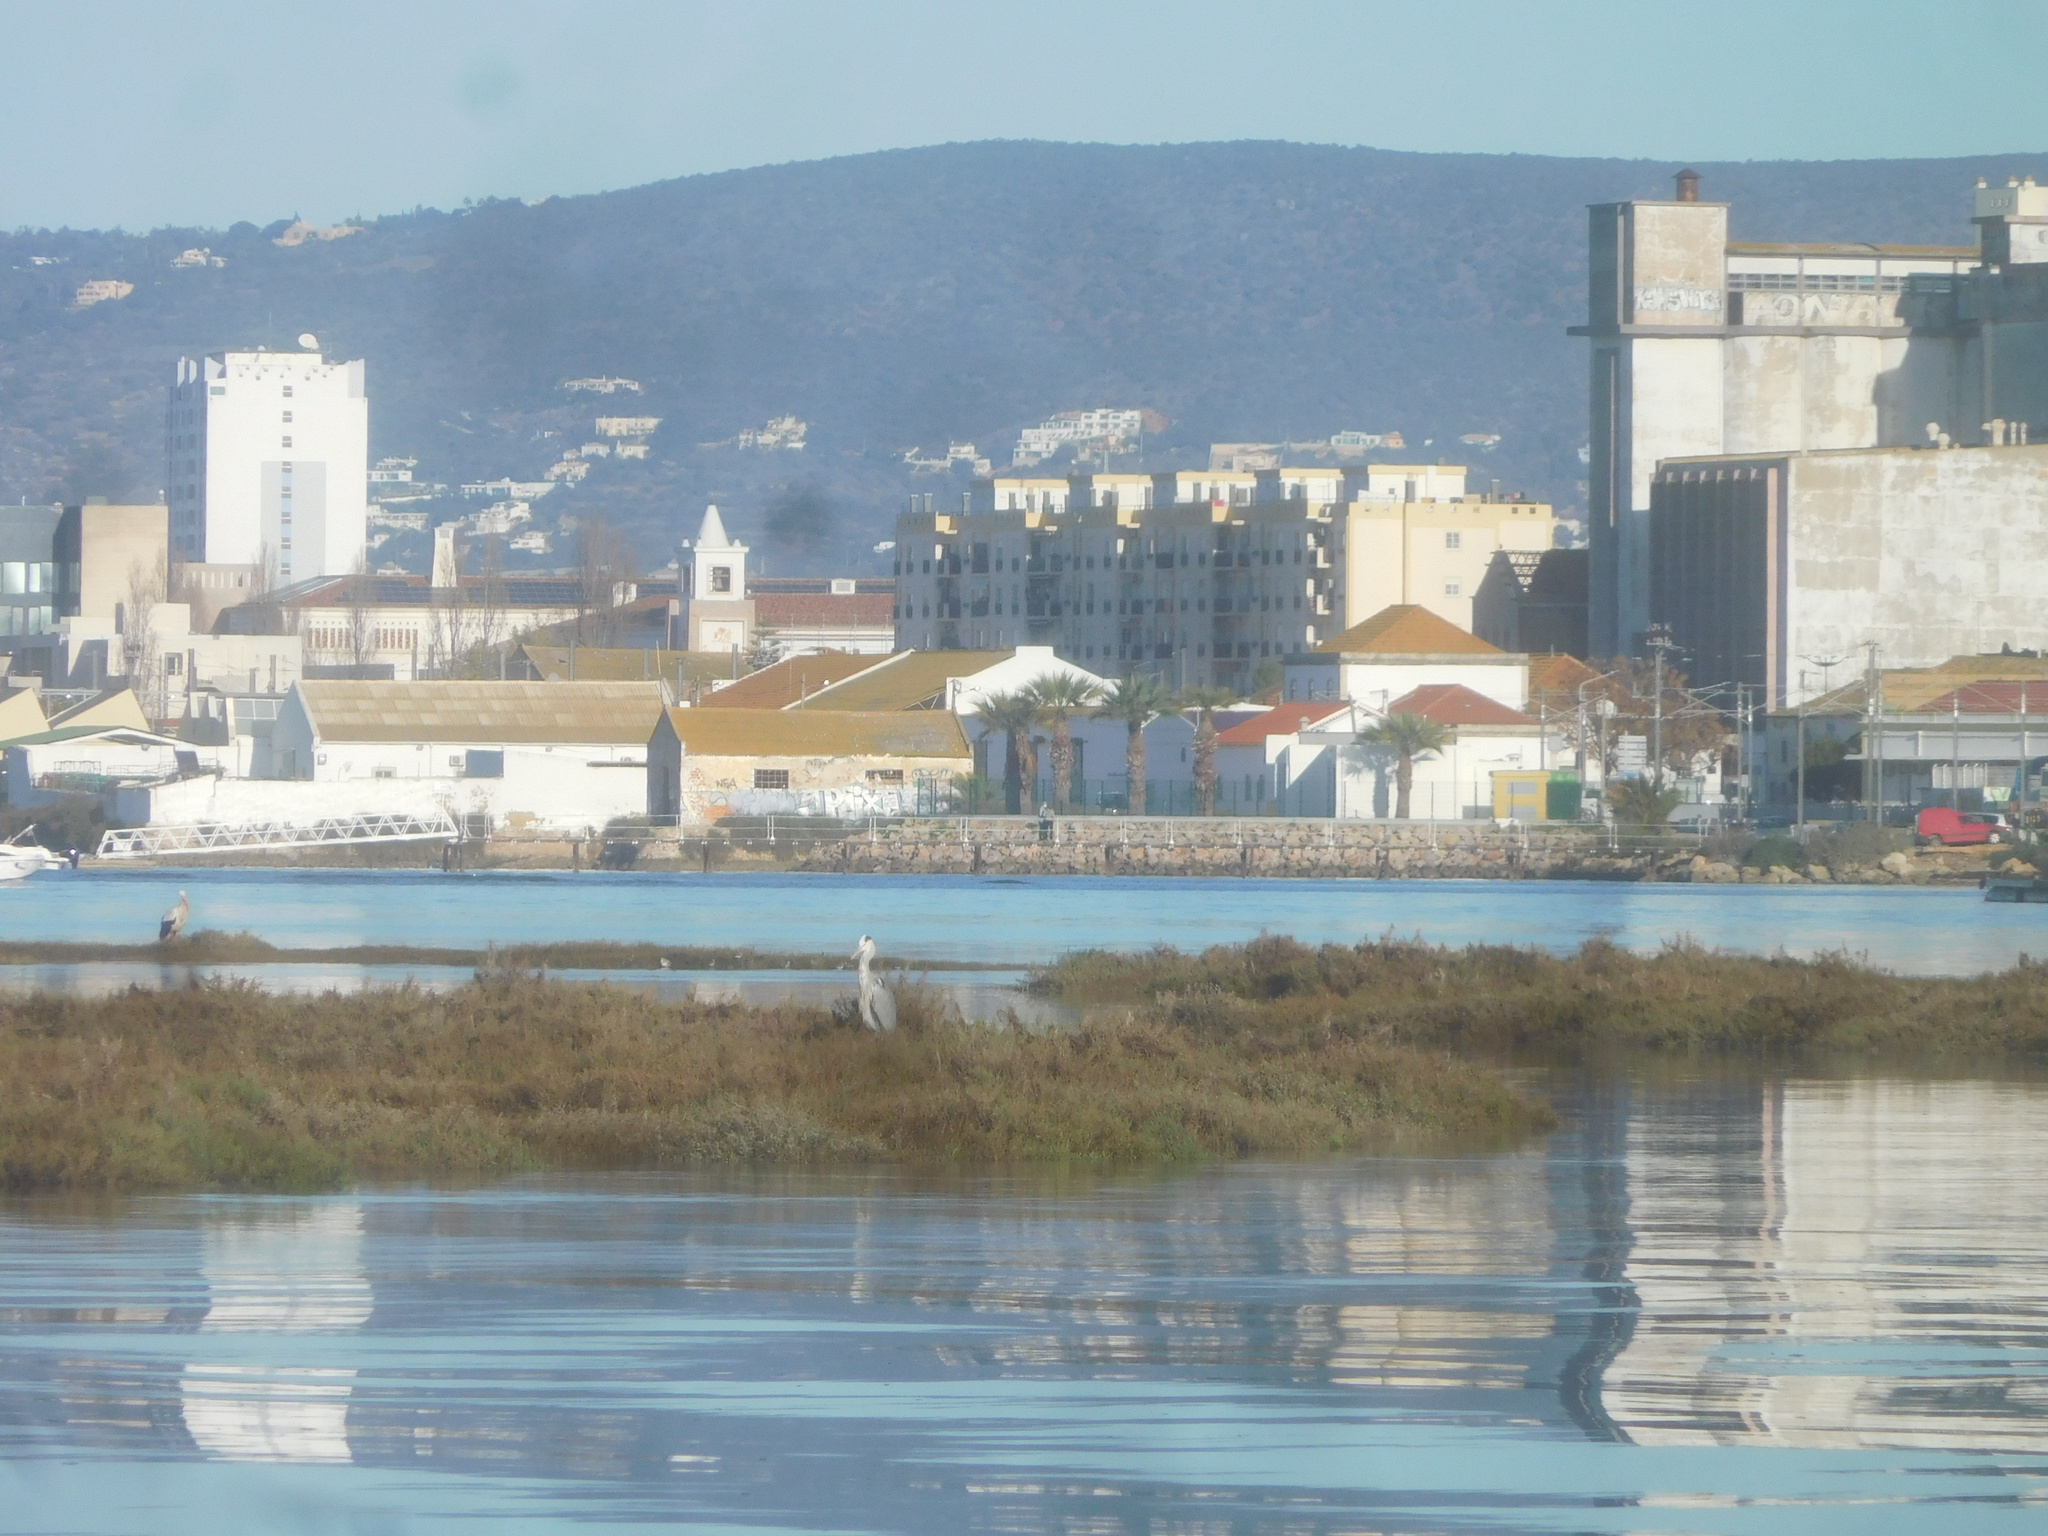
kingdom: Animalia
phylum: Chordata
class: Aves
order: Pelecaniformes
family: Ardeidae
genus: Ardea
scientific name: Ardea cinerea
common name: Grey heron
